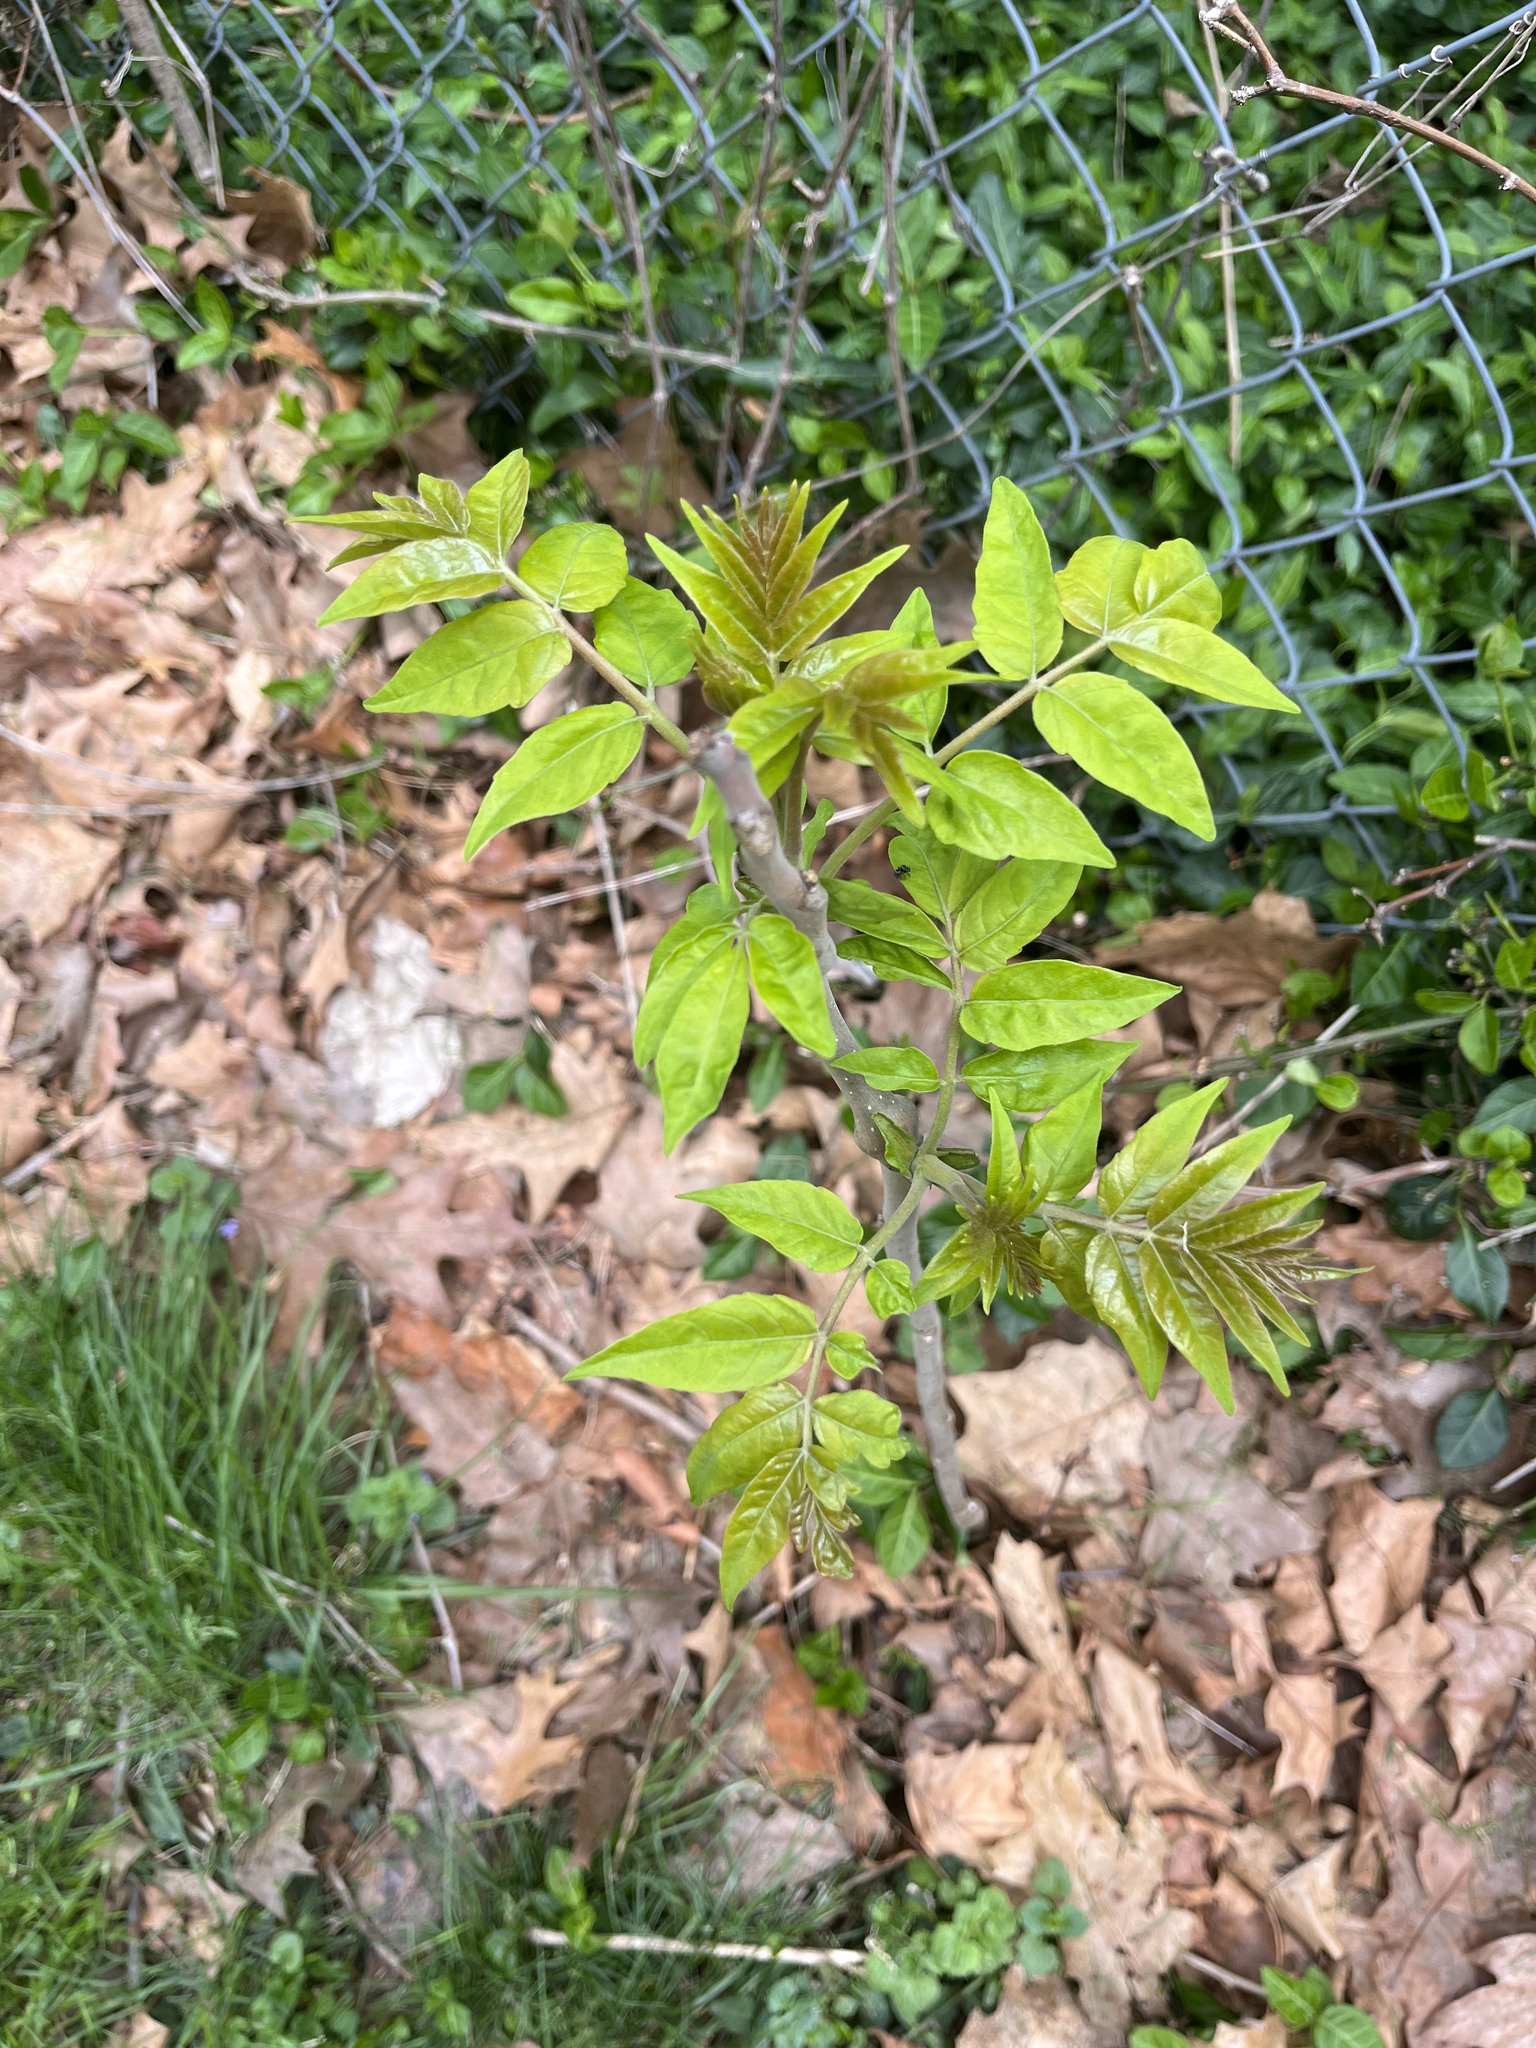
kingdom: Plantae
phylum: Tracheophyta
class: Magnoliopsida
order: Sapindales
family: Simaroubaceae
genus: Ailanthus
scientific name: Ailanthus altissima
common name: Tree-of-heaven
